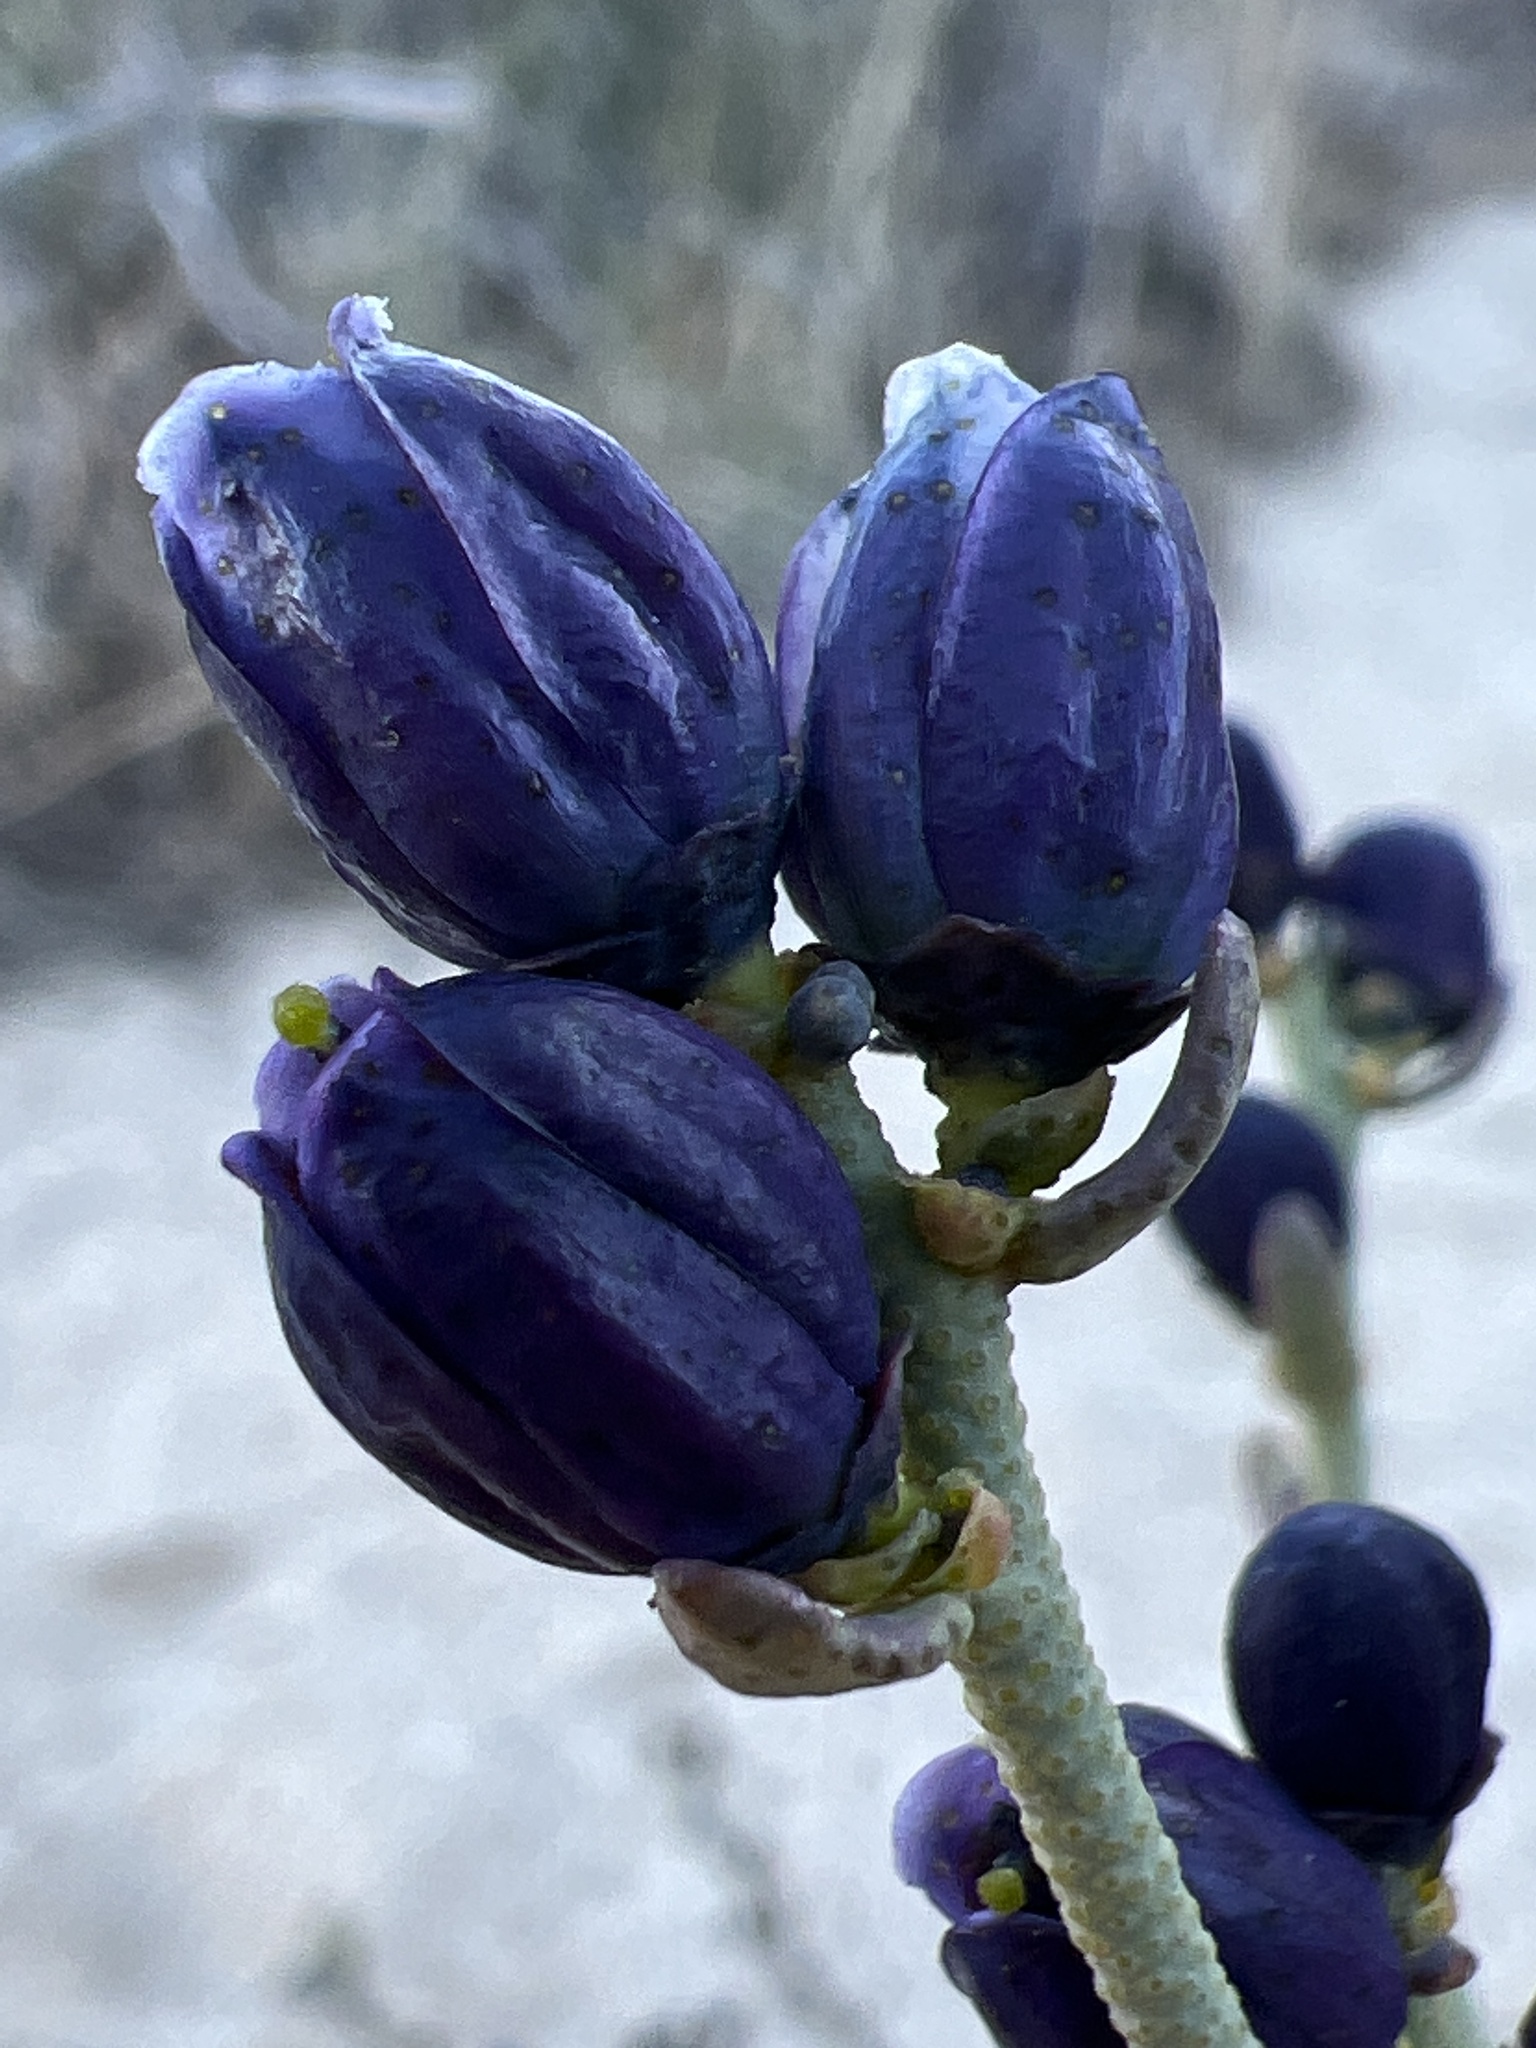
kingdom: Plantae
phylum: Tracheophyta
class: Magnoliopsida
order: Sapindales
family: Rutaceae
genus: Thamnosma
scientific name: Thamnosma montana
